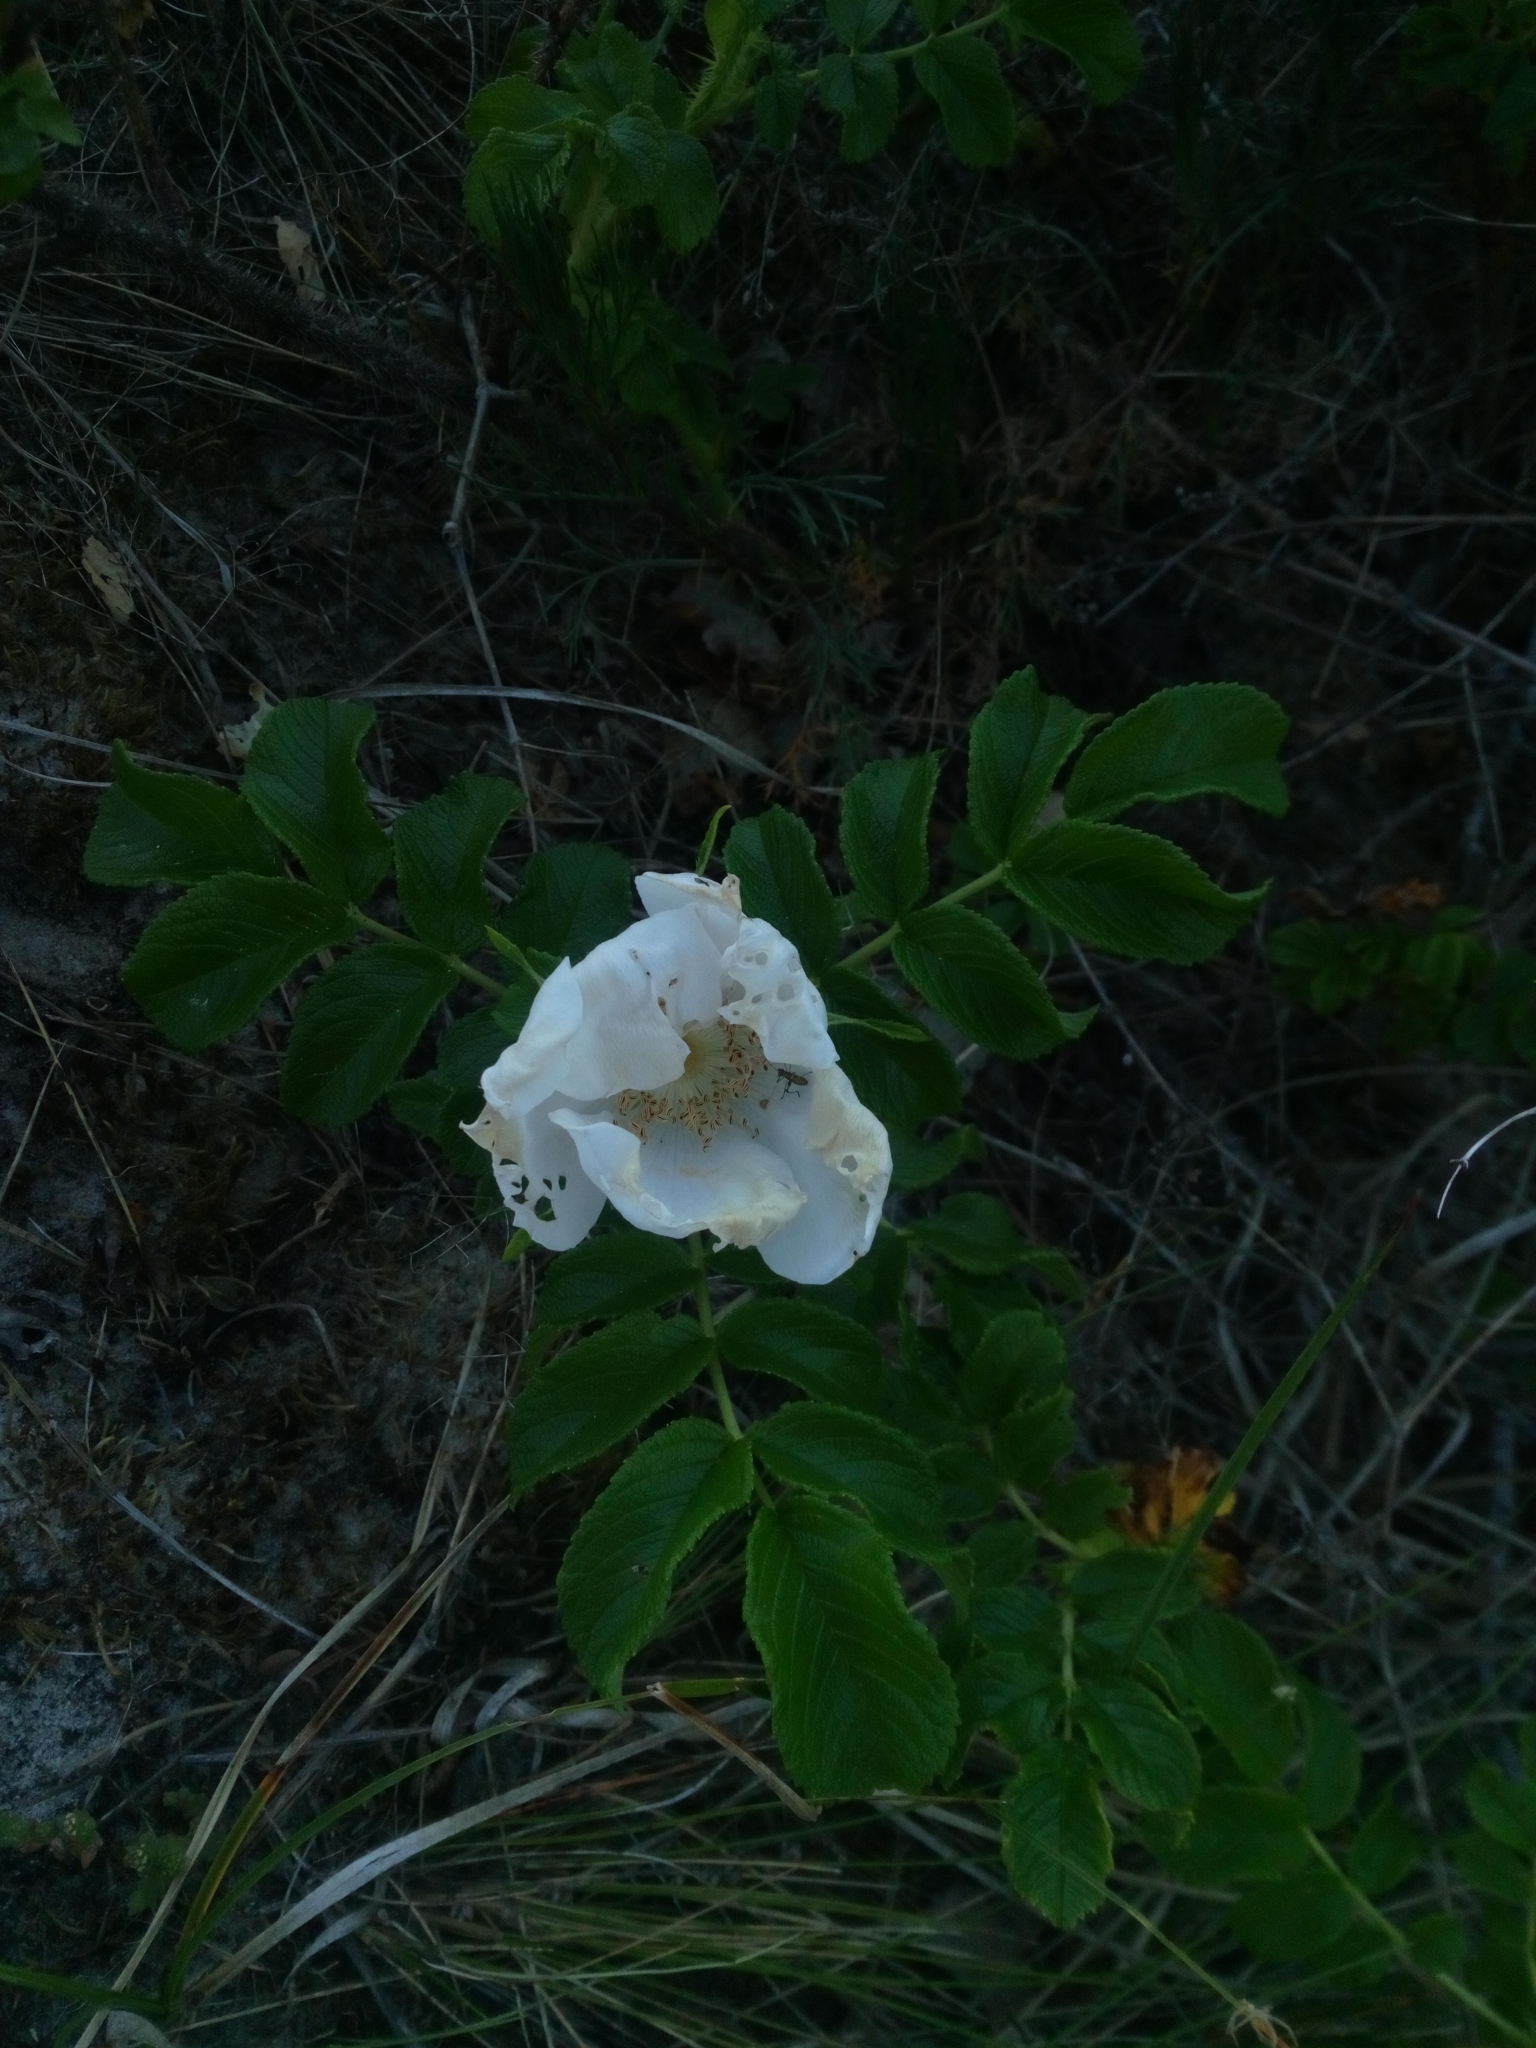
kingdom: Plantae
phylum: Tracheophyta
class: Magnoliopsida
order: Rosales
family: Rosaceae
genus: Rosa
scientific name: Rosa rugosa
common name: Japanese rose
